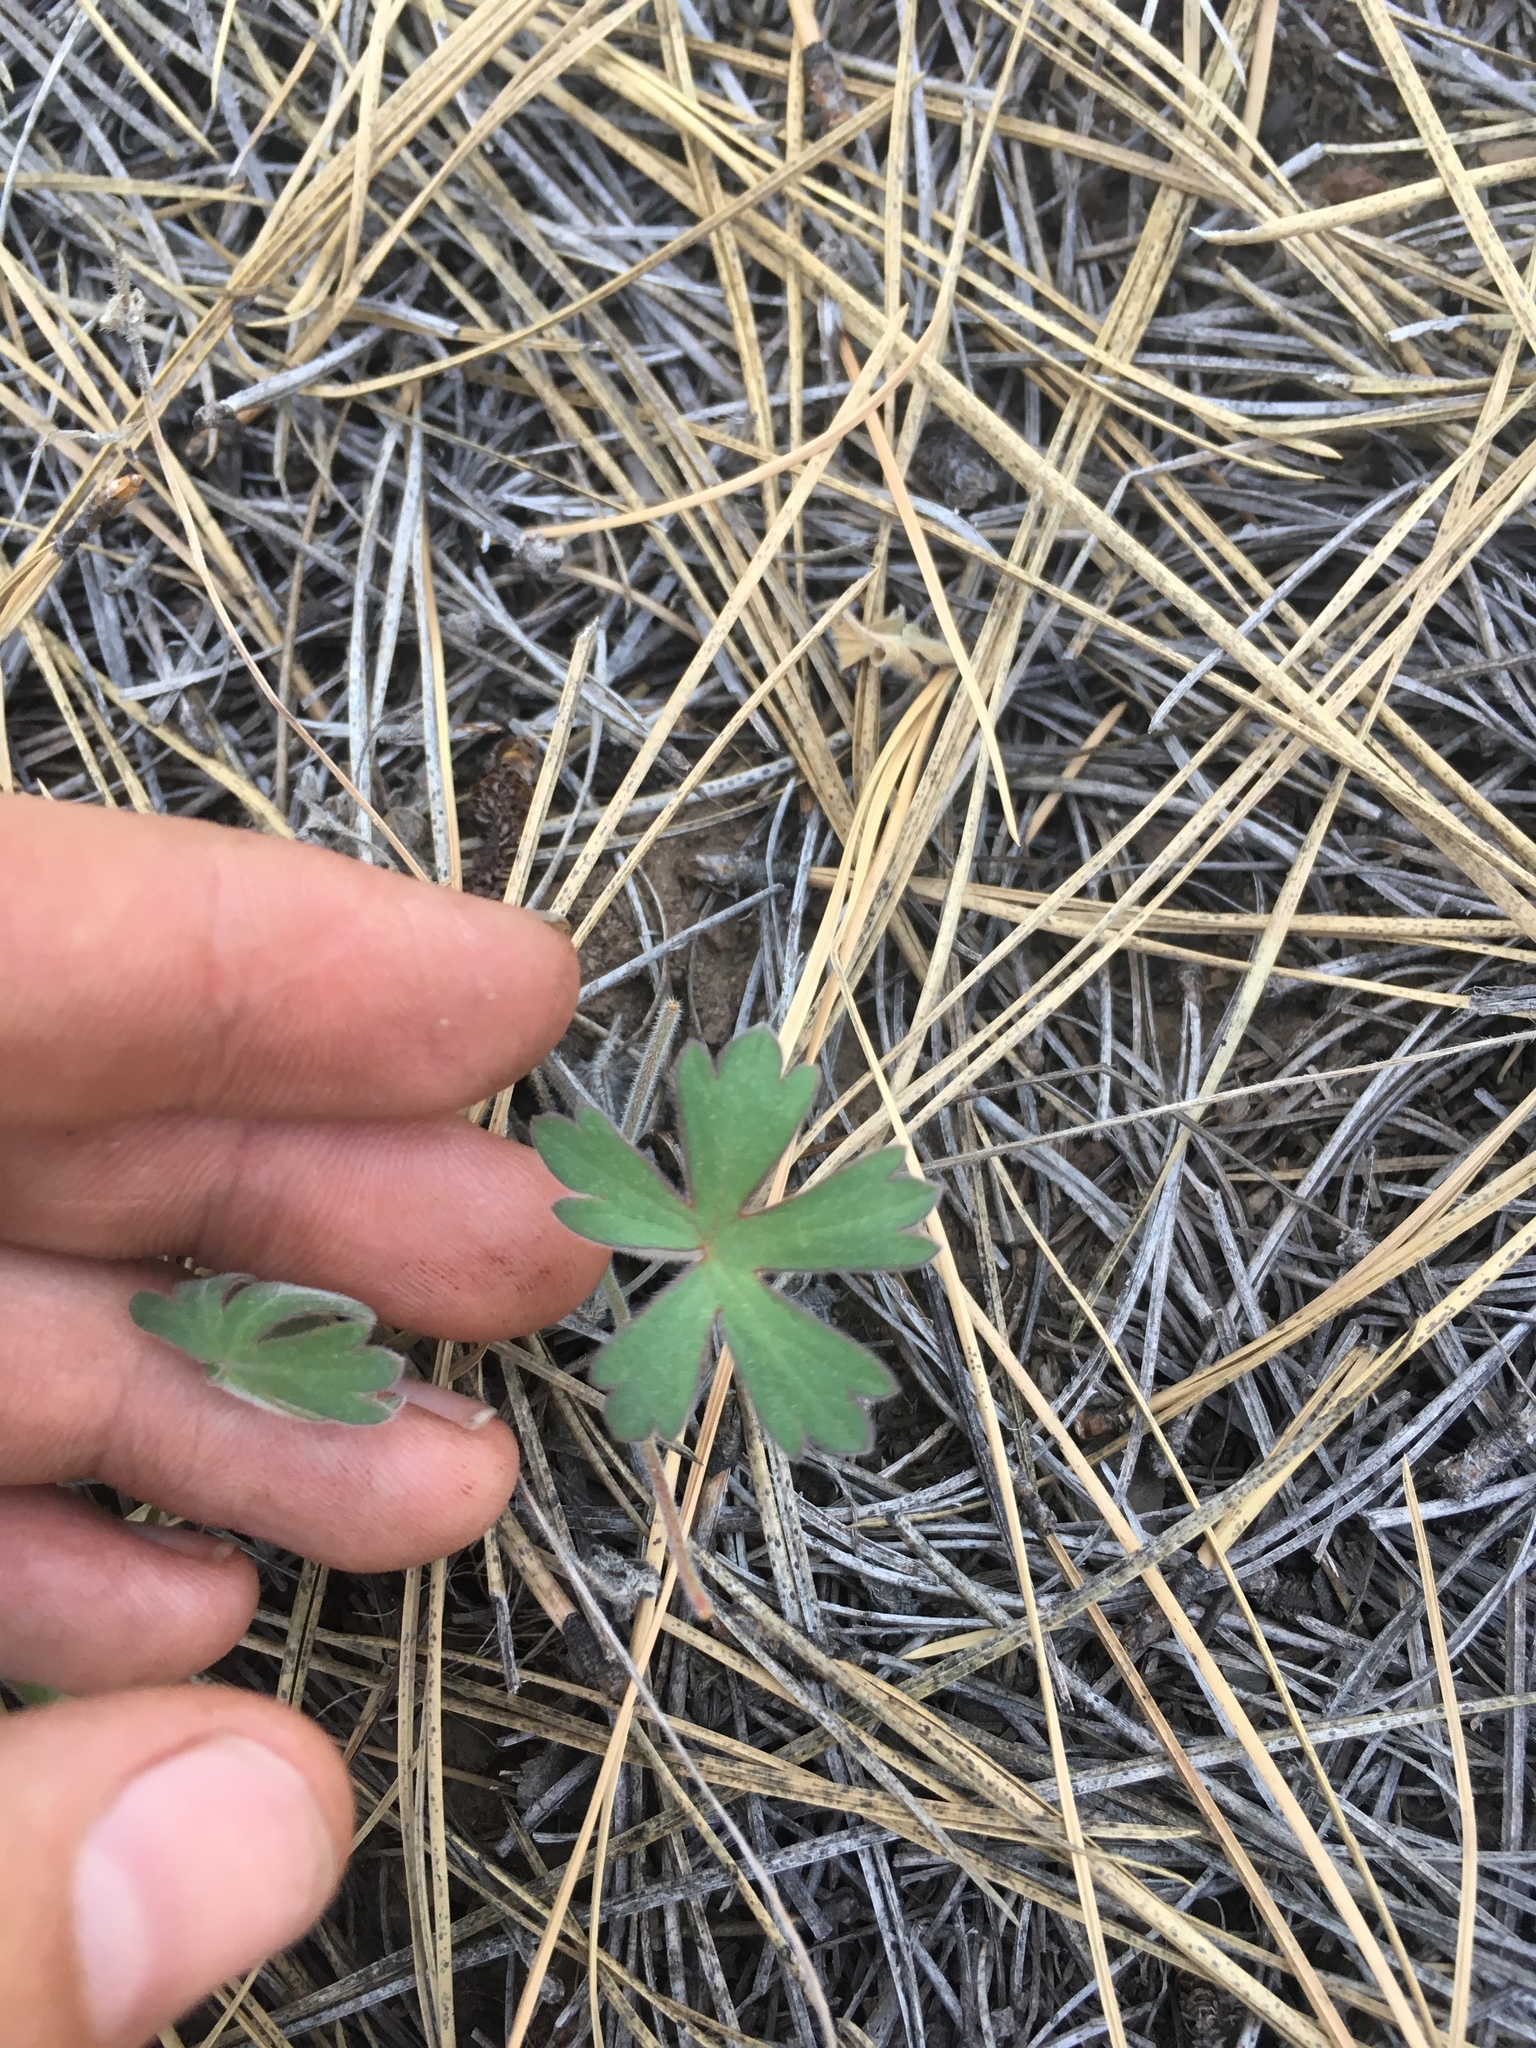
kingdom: Plantae
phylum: Tracheophyta
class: Magnoliopsida
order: Geraniales
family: Geraniaceae
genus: Geranium
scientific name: Geranium caespitosum
